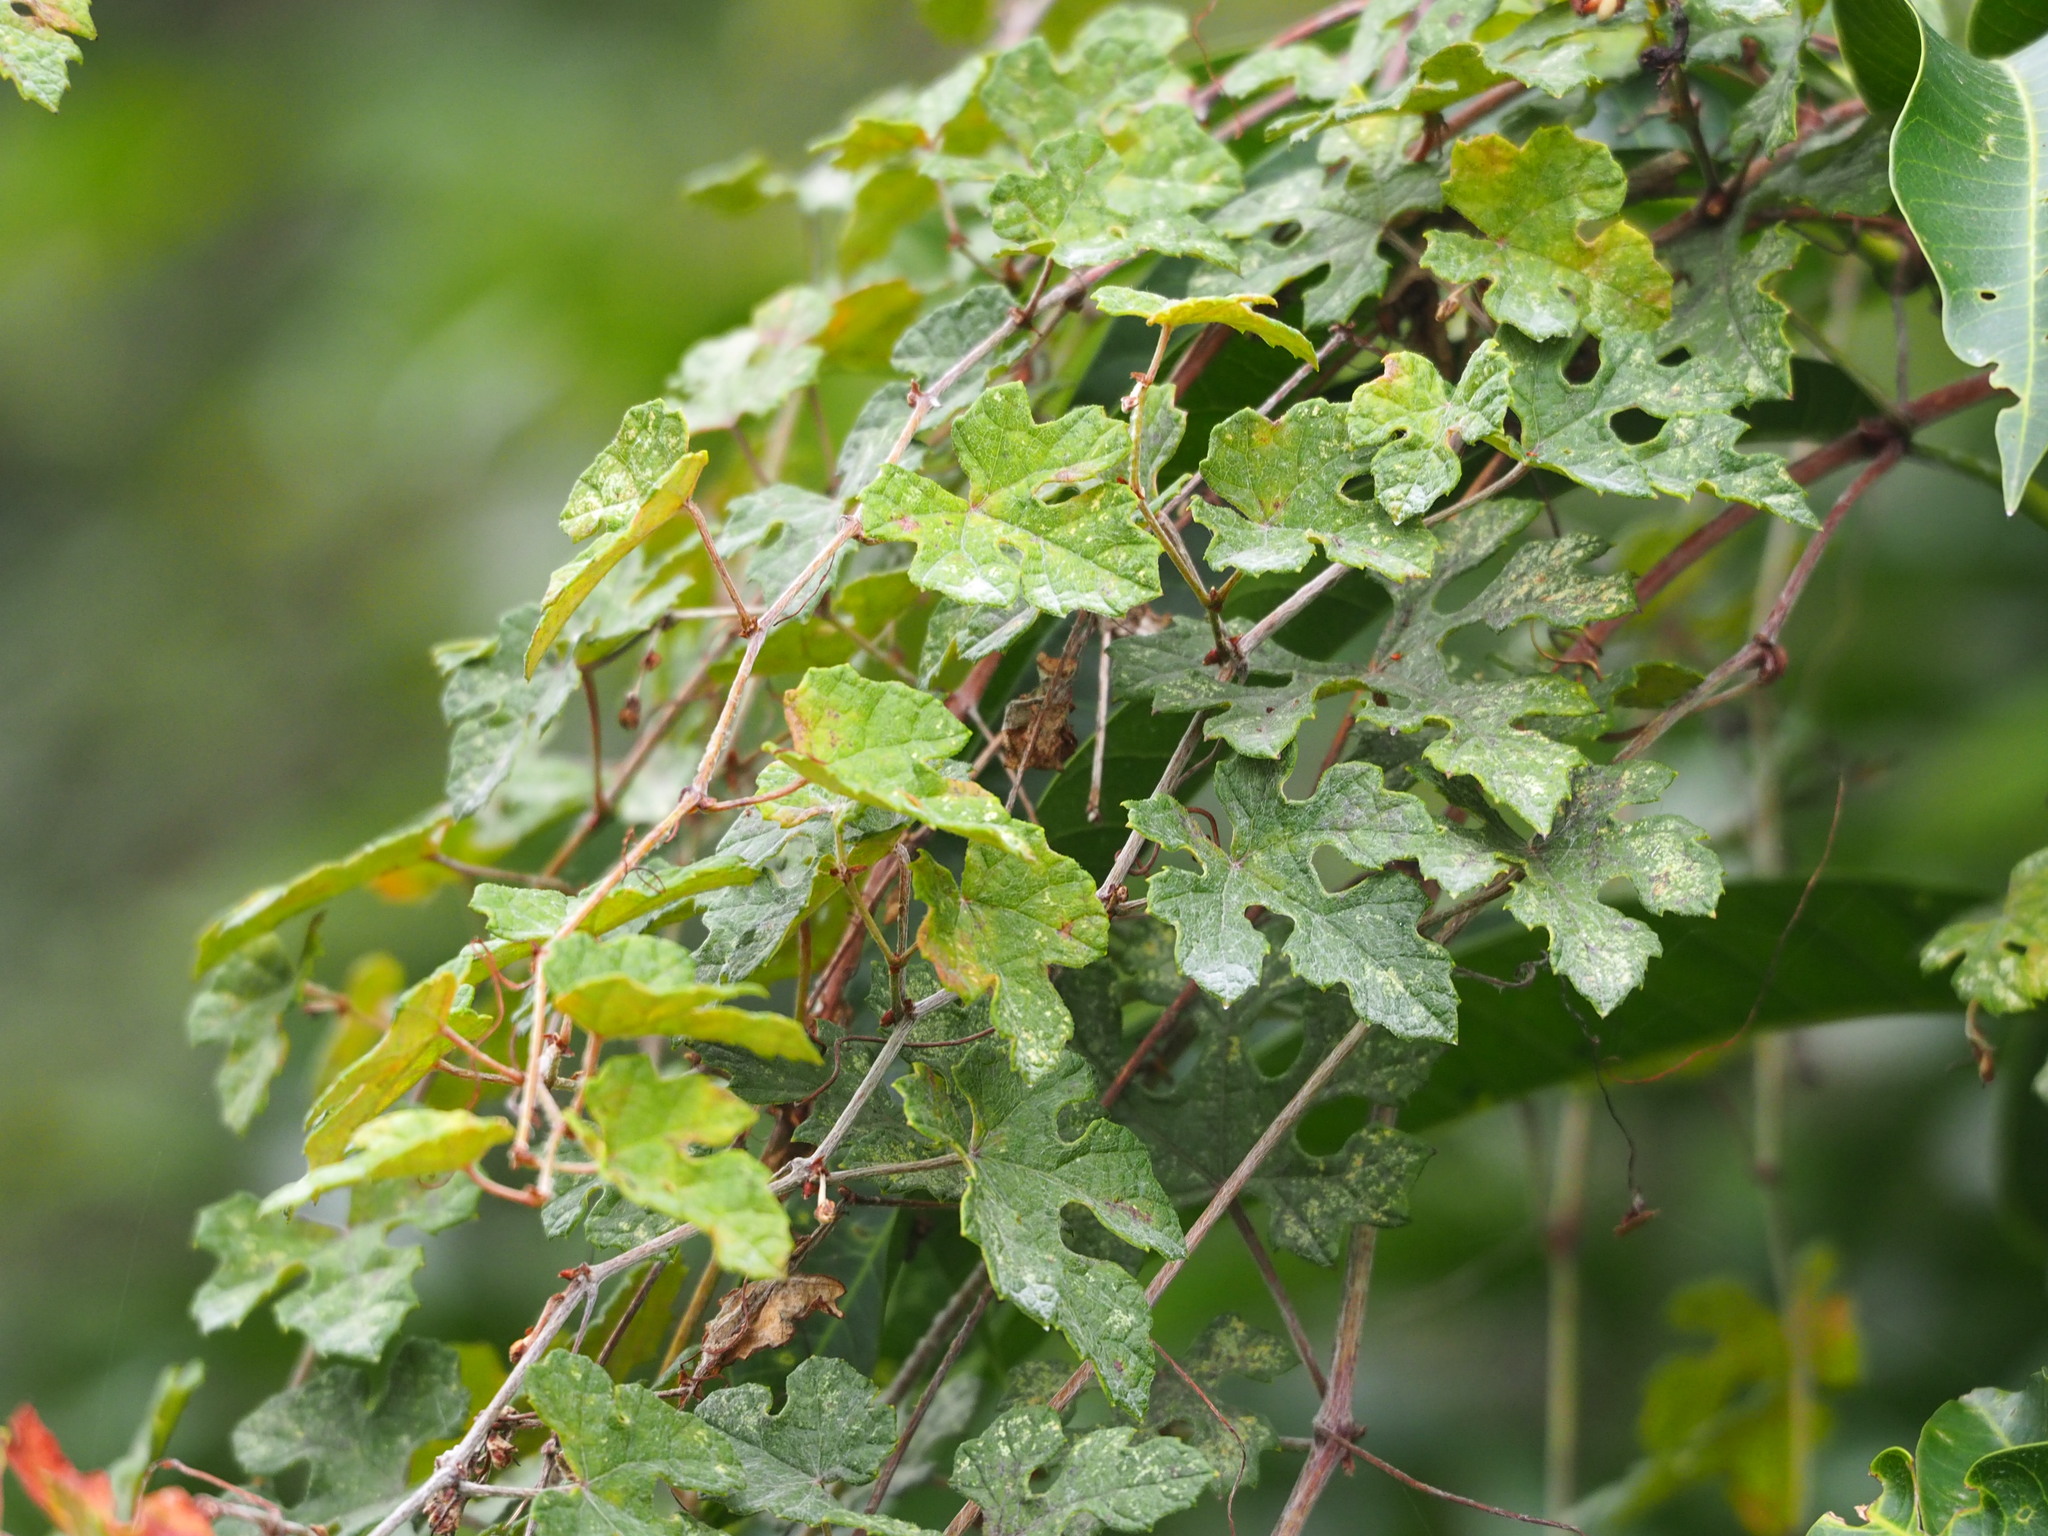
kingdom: Plantae
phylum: Tracheophyta
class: Magnoliopsida
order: Vitales
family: Vitaceae
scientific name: Vitaceae
